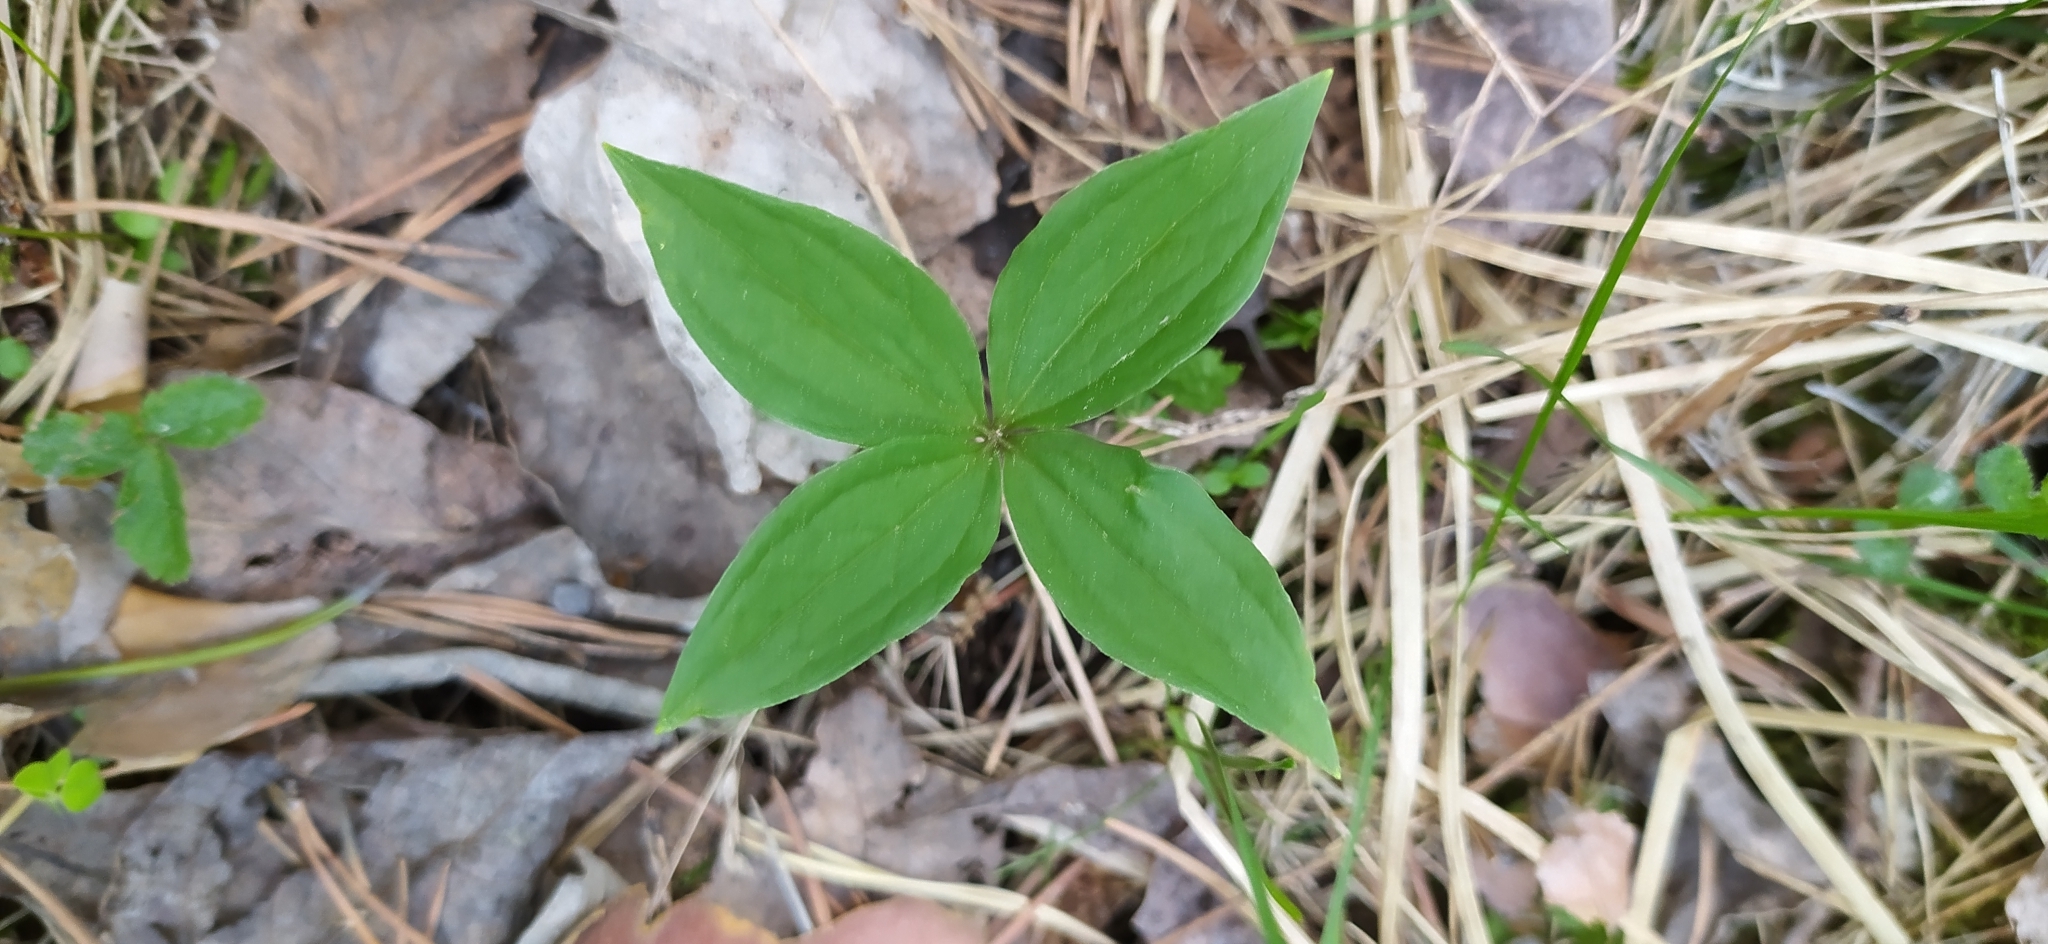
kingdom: Plantae
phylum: Tracheophyta
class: Liliopsida
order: Liliales
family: Melanthiaceae
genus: Paris
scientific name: Paris quadrifolia
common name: Herb-paris
